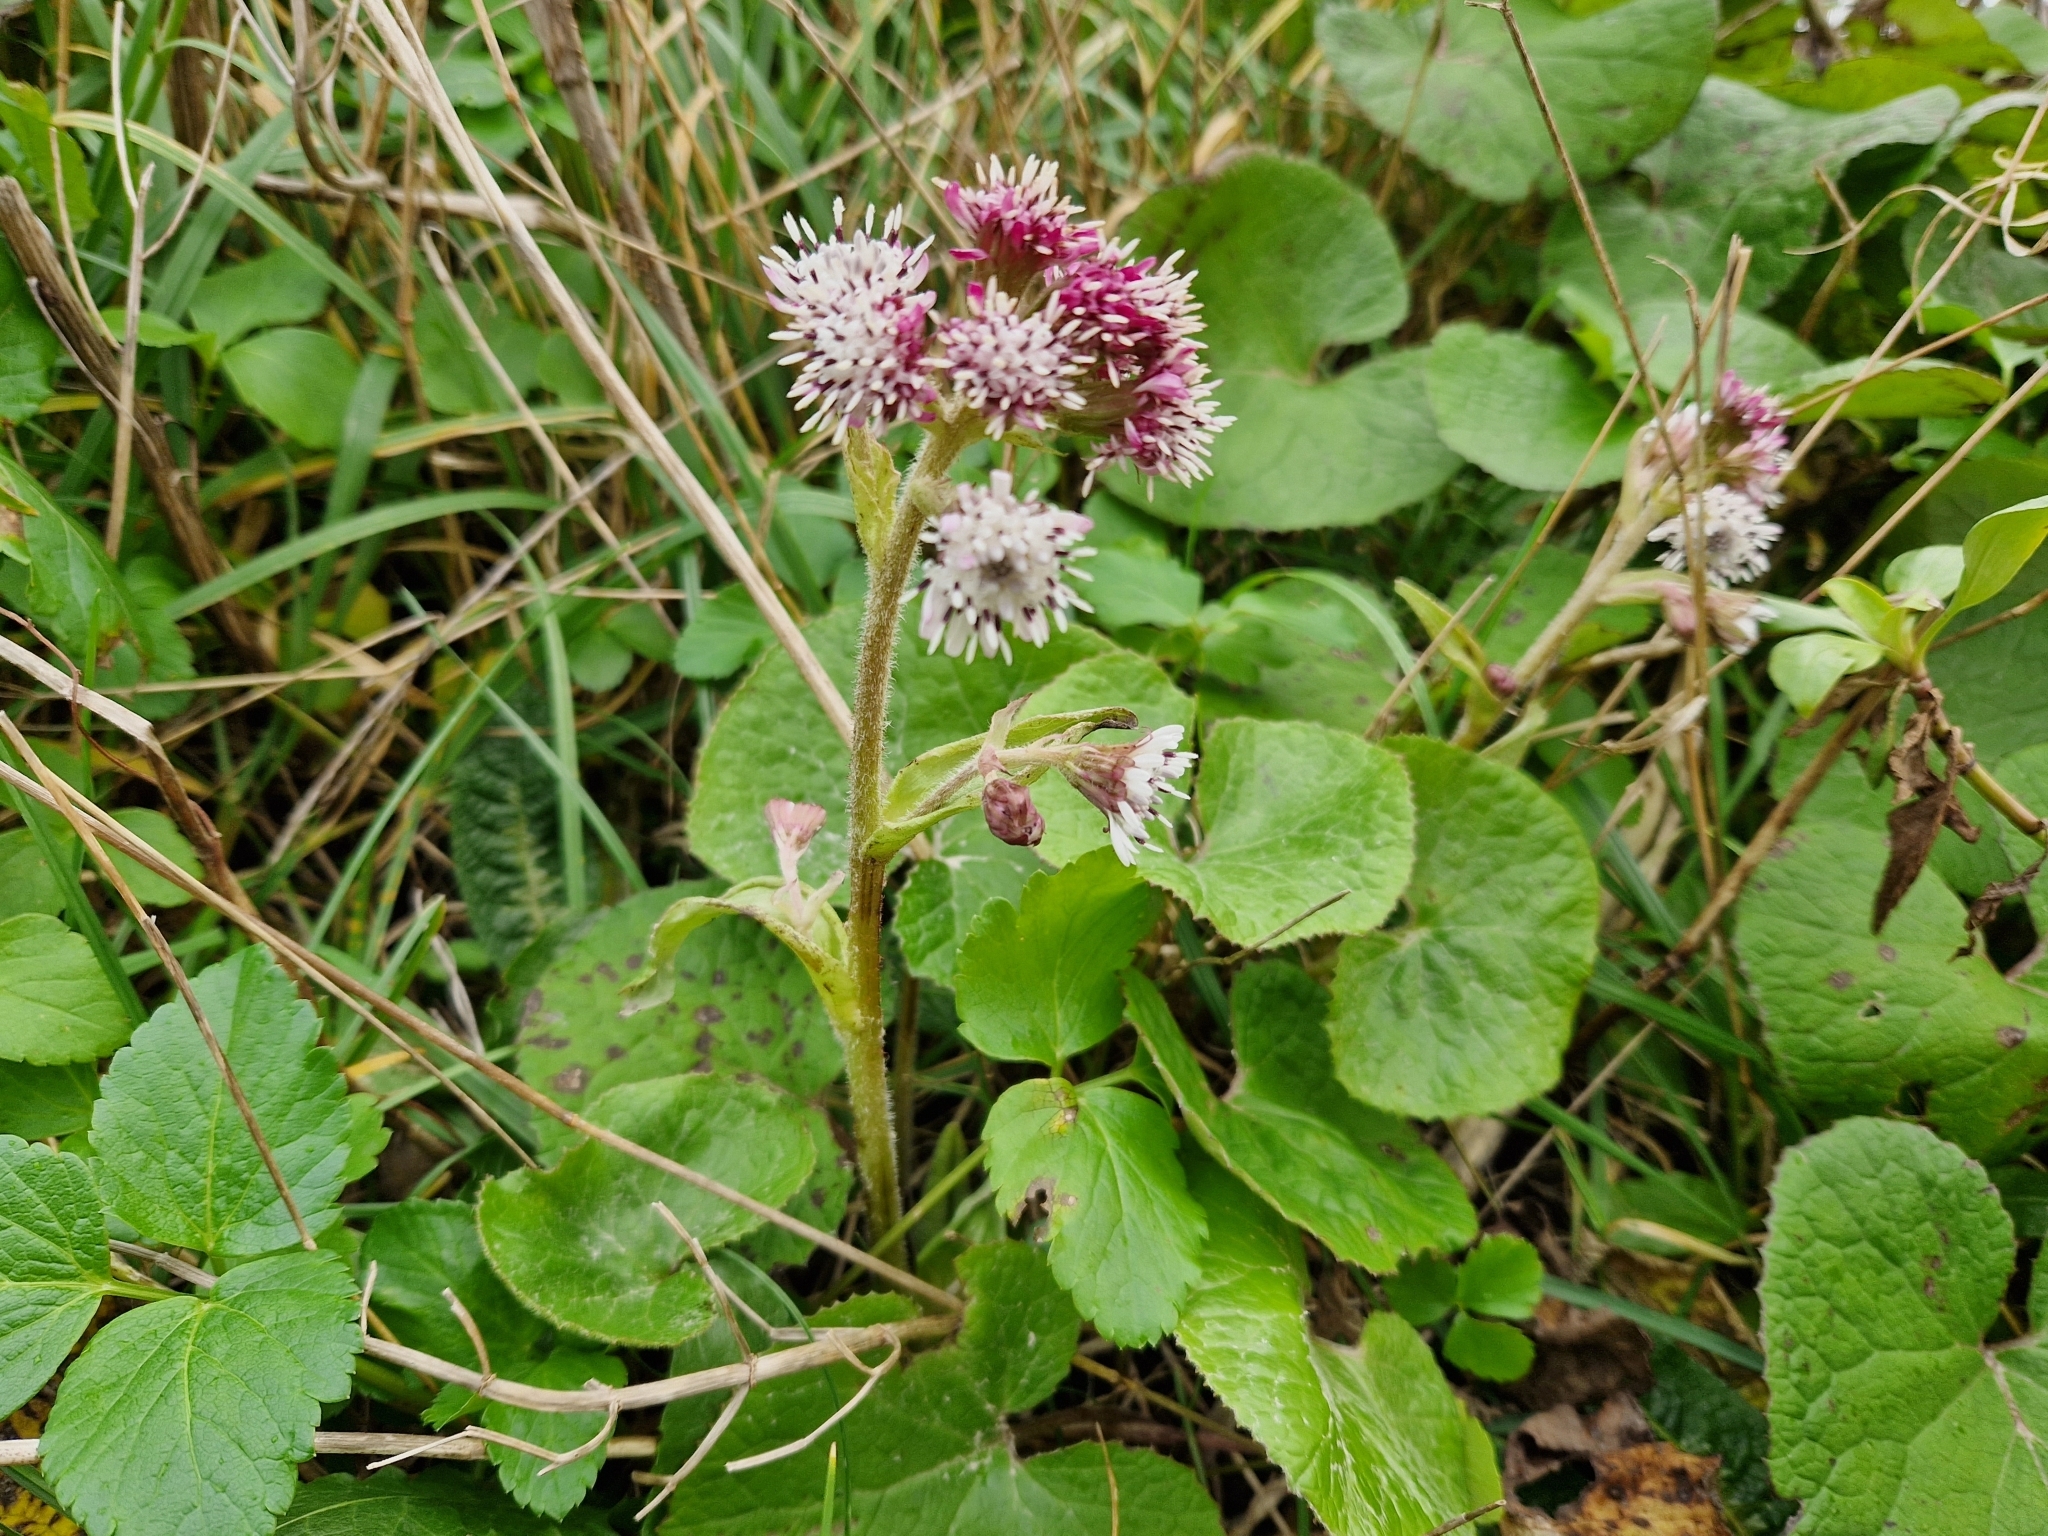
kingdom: Plantae
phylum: Tracheophyta
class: Magnoliopsida
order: Asterales
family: Asteraceae
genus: Petasites
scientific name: Petasites pyrenaicus
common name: Winter heliotrope
